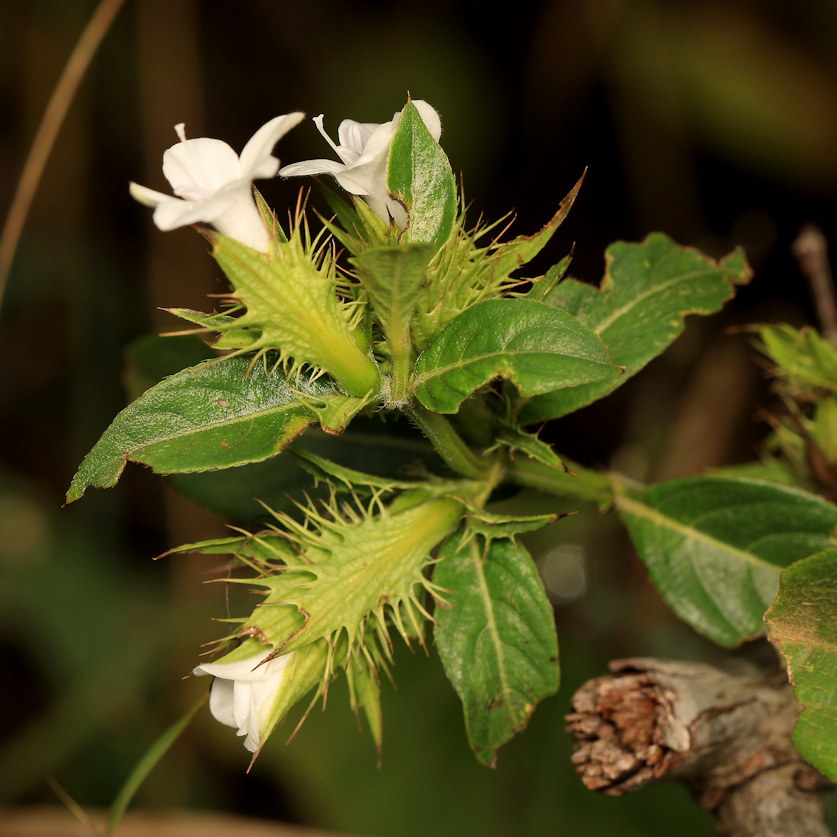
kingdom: Plantae
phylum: Tracheophyta
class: Magnoliopsida
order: Lamiales
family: Acanthaceae
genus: Barleria
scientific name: Barleria elegans
